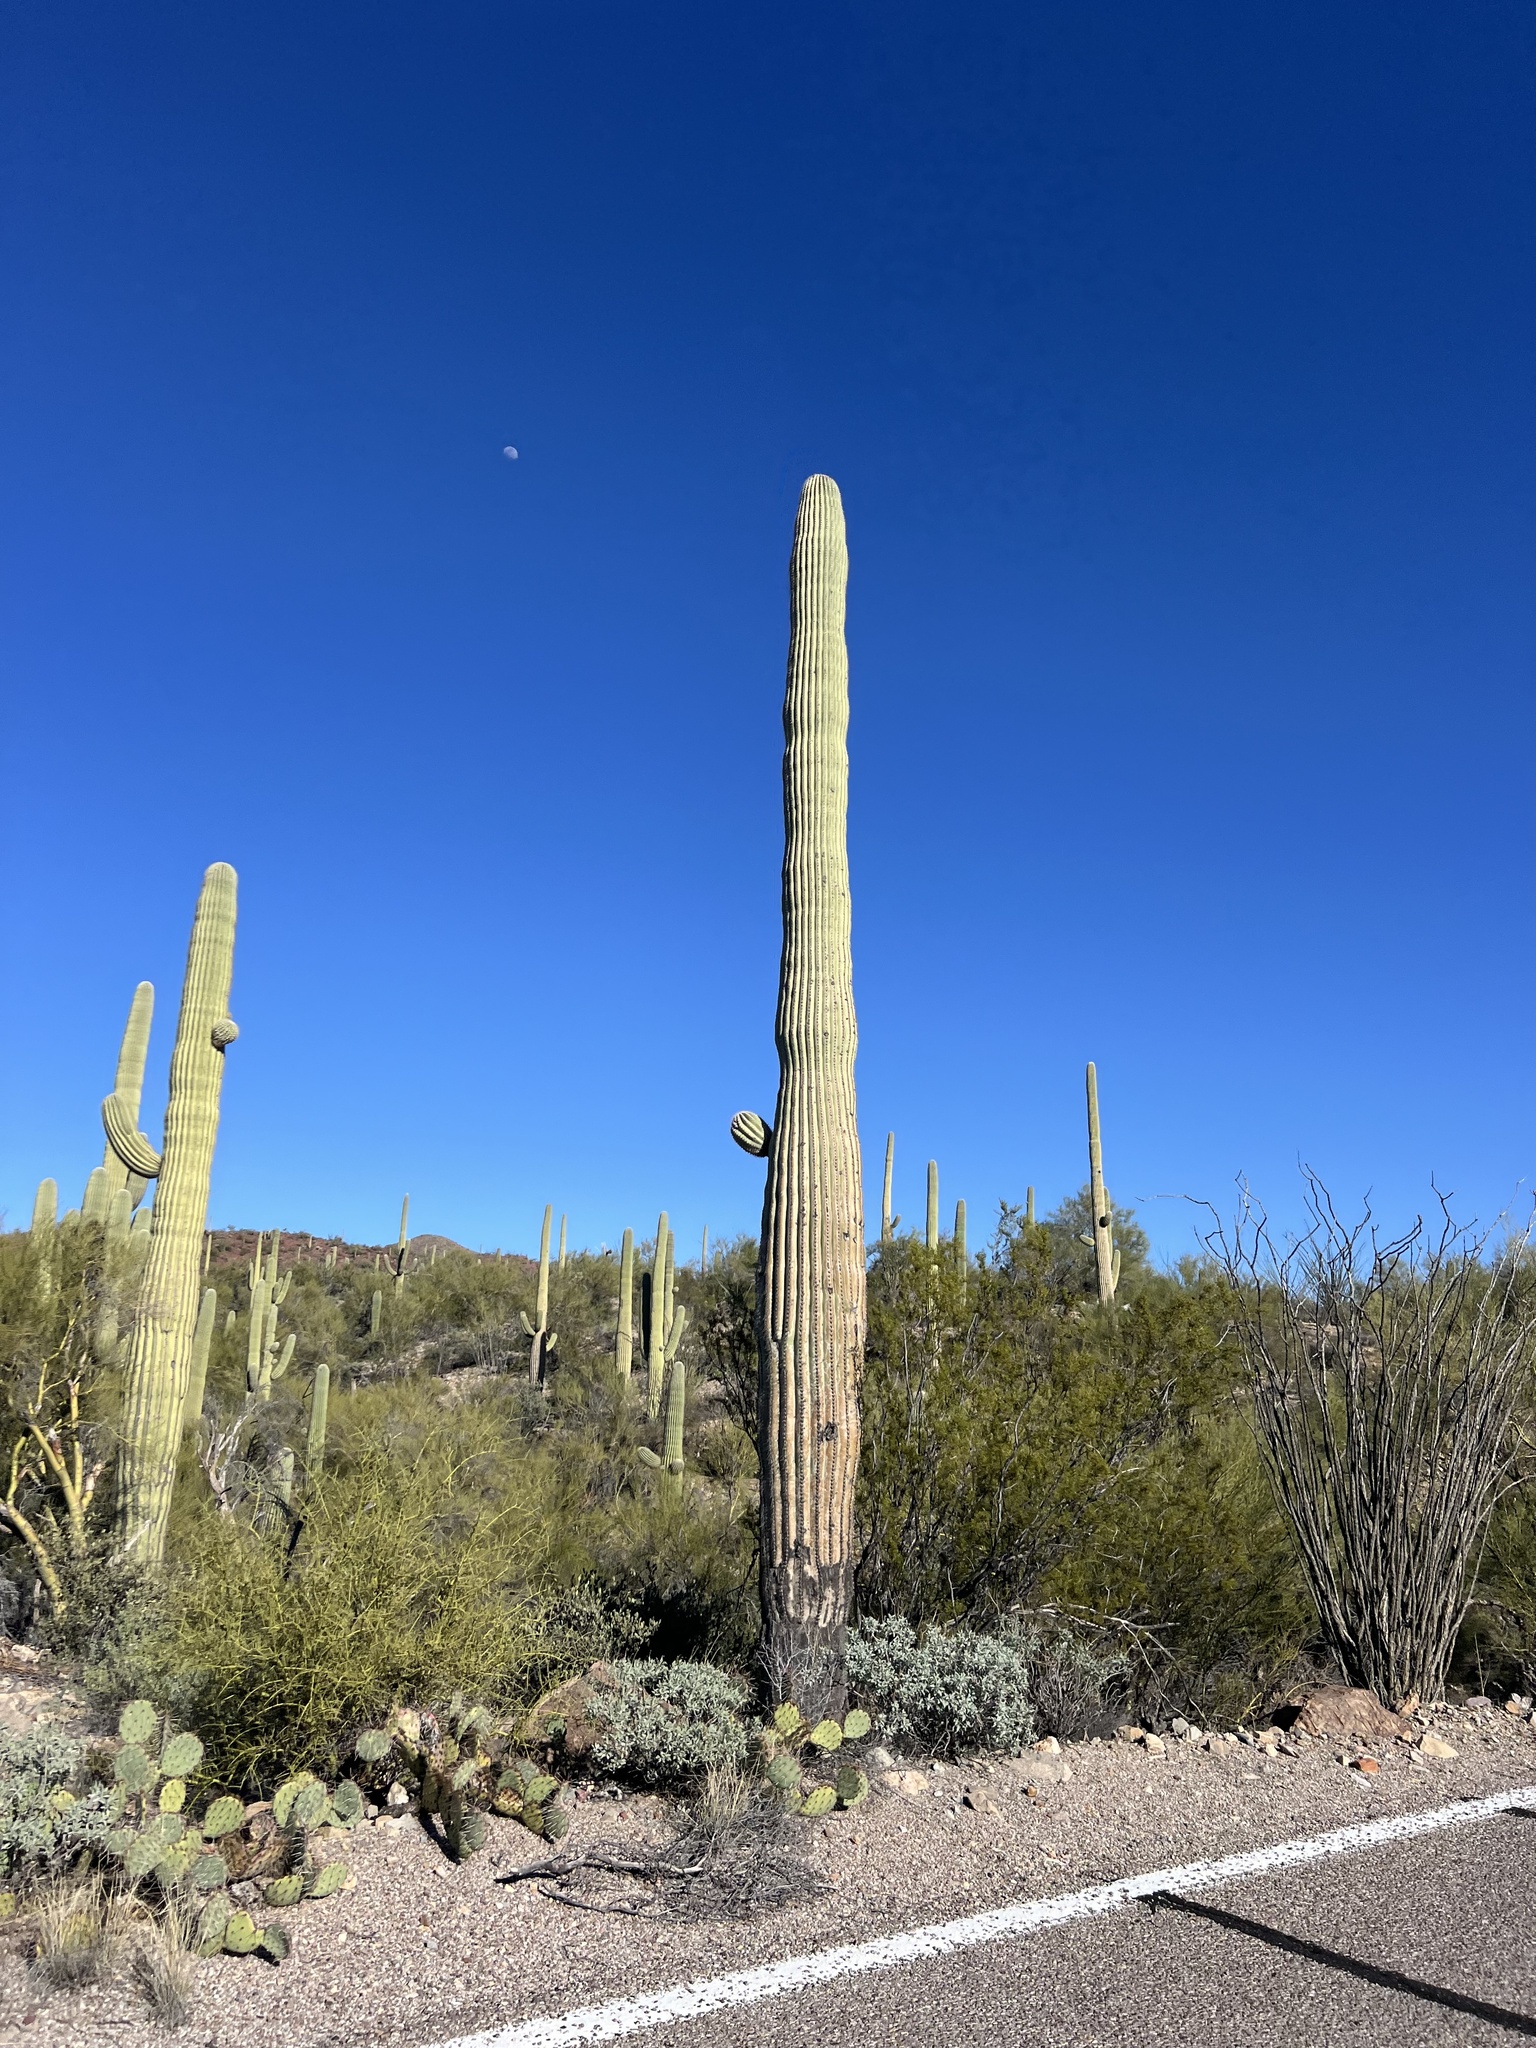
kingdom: Plantae
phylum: Tracheophyta
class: Magnoliopsida
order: Caryophyllales
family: Cactaceae
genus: Carnegiea
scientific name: Carnegiea gigantea
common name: Saguaro
